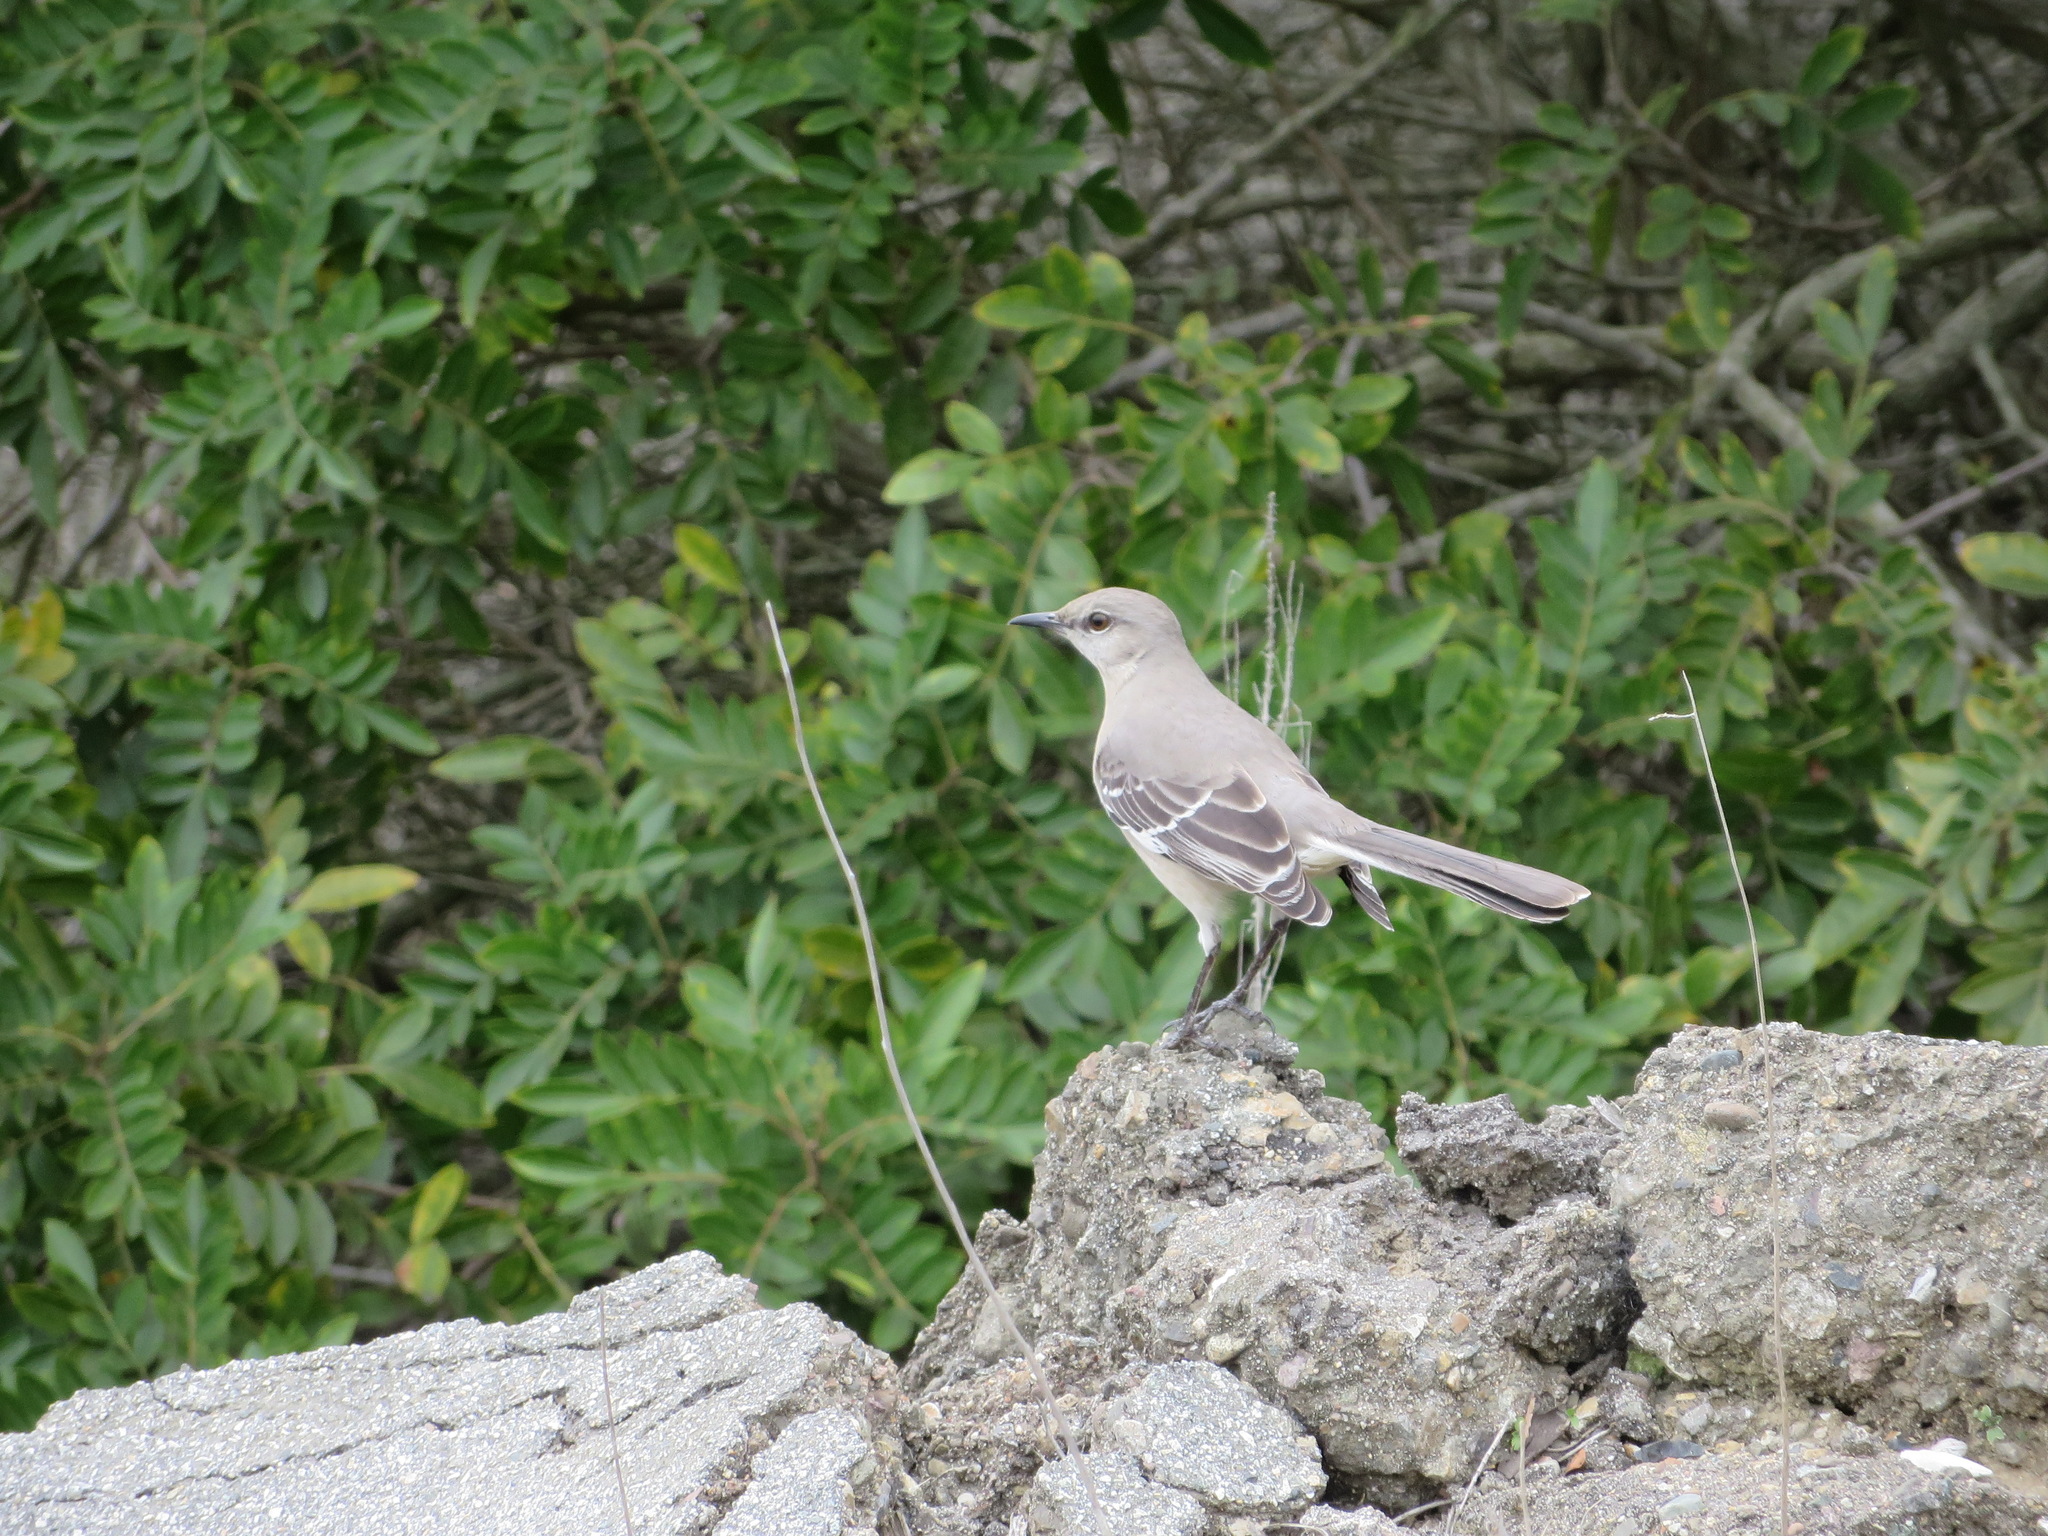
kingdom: Animalia
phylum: Chordata
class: Aves
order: Passeriformes
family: Mimidae
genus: Mimus
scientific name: Mimus polyglottos
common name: Northern mockingbird
